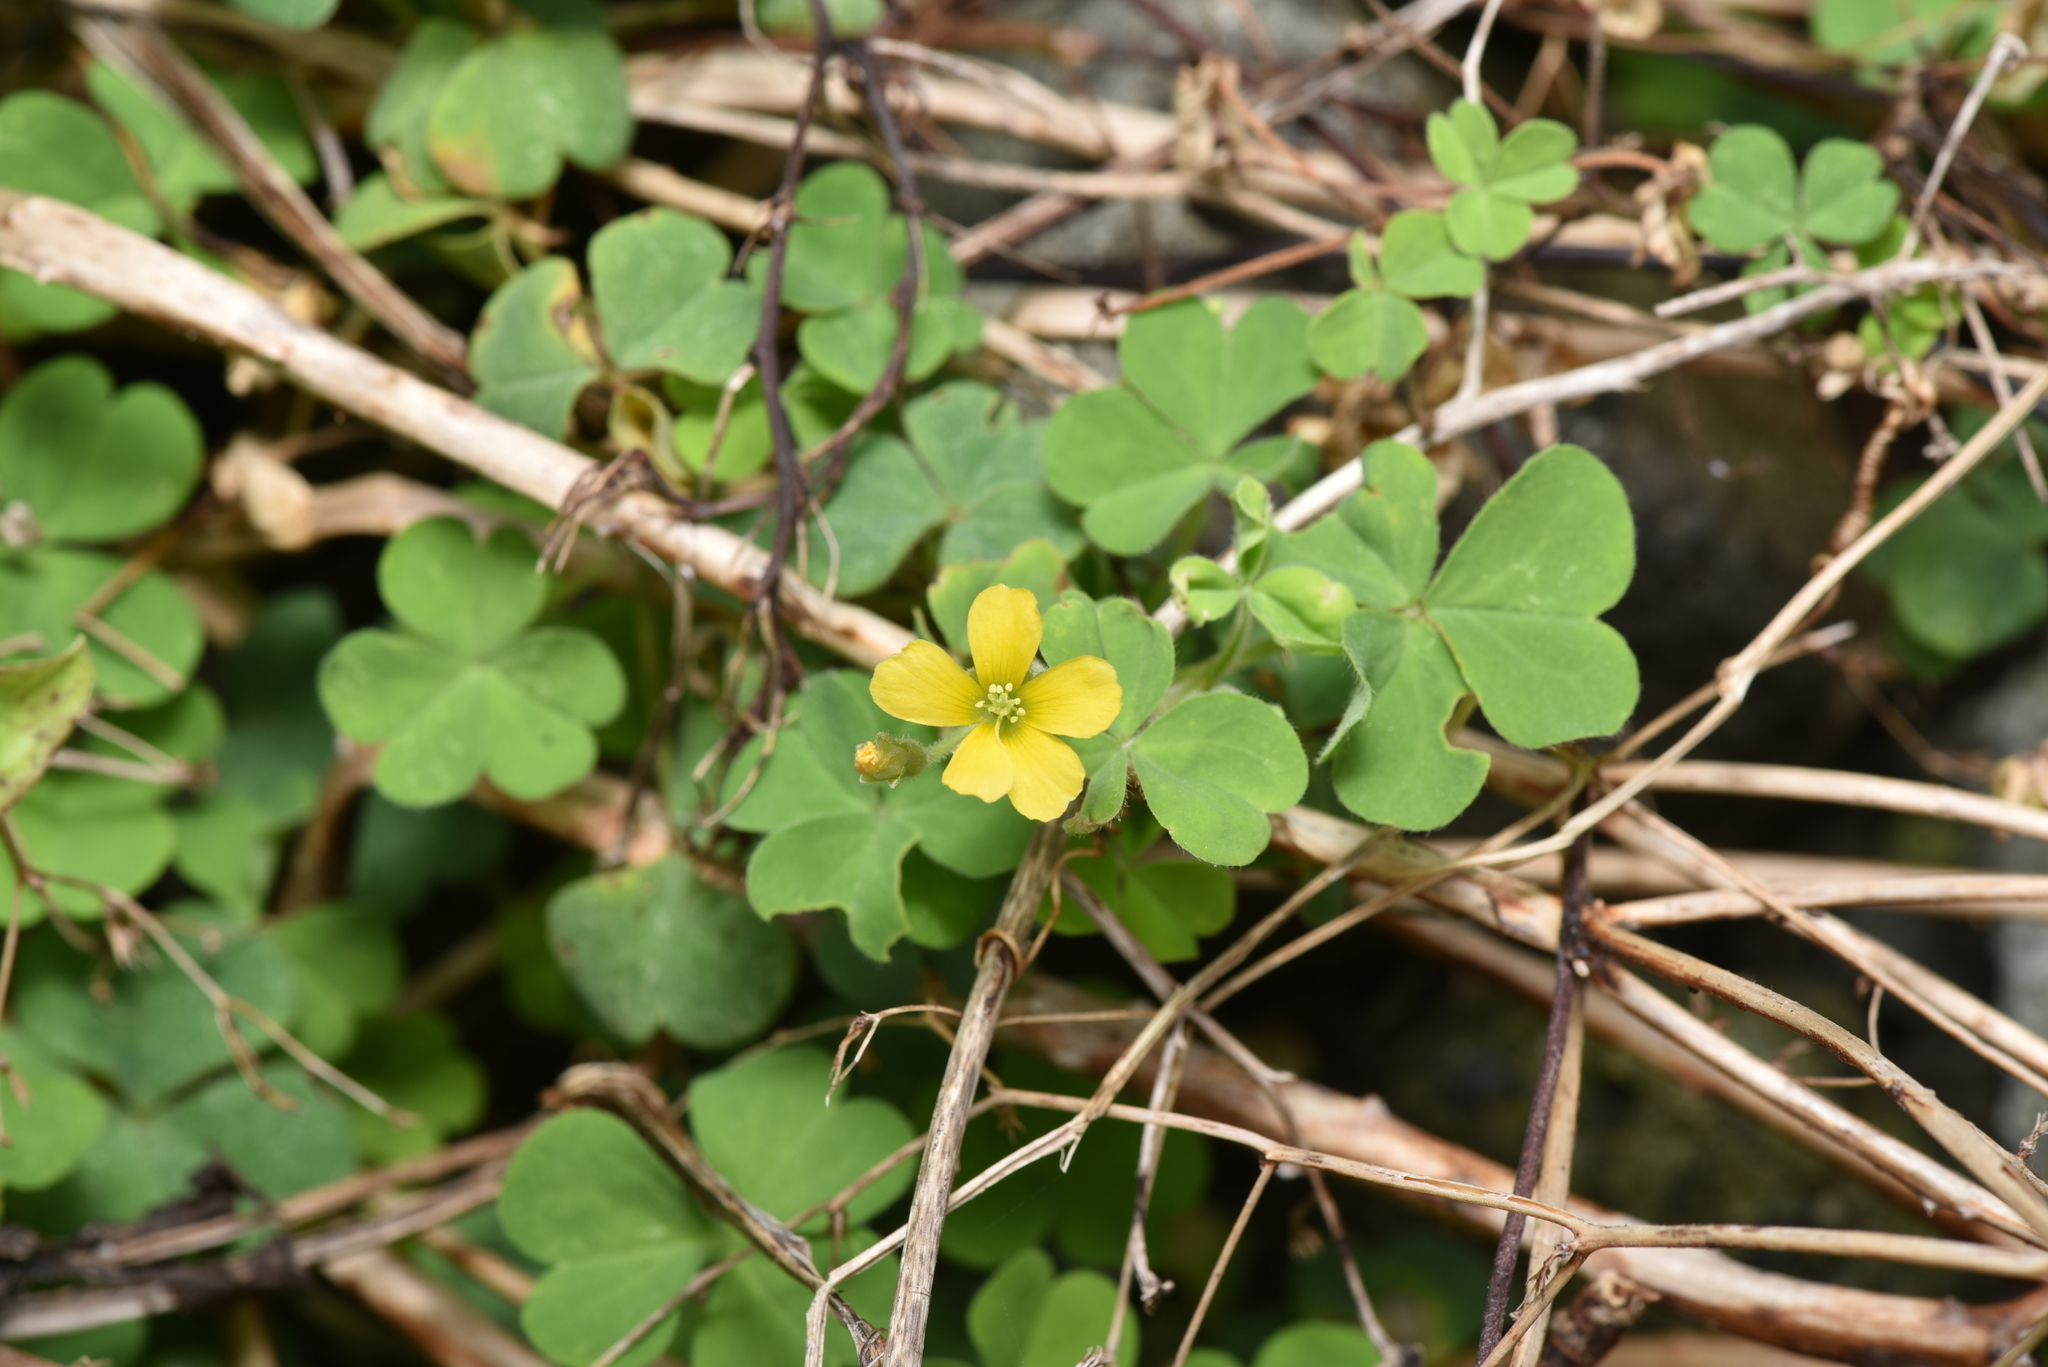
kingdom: Plantae
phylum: Tracheophyta
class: Magnoliopsida
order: Oxalidales
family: Oxalidaceae
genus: Oxalis
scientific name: Oxalis corniculata
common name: Procumbent yellow-sorrel
